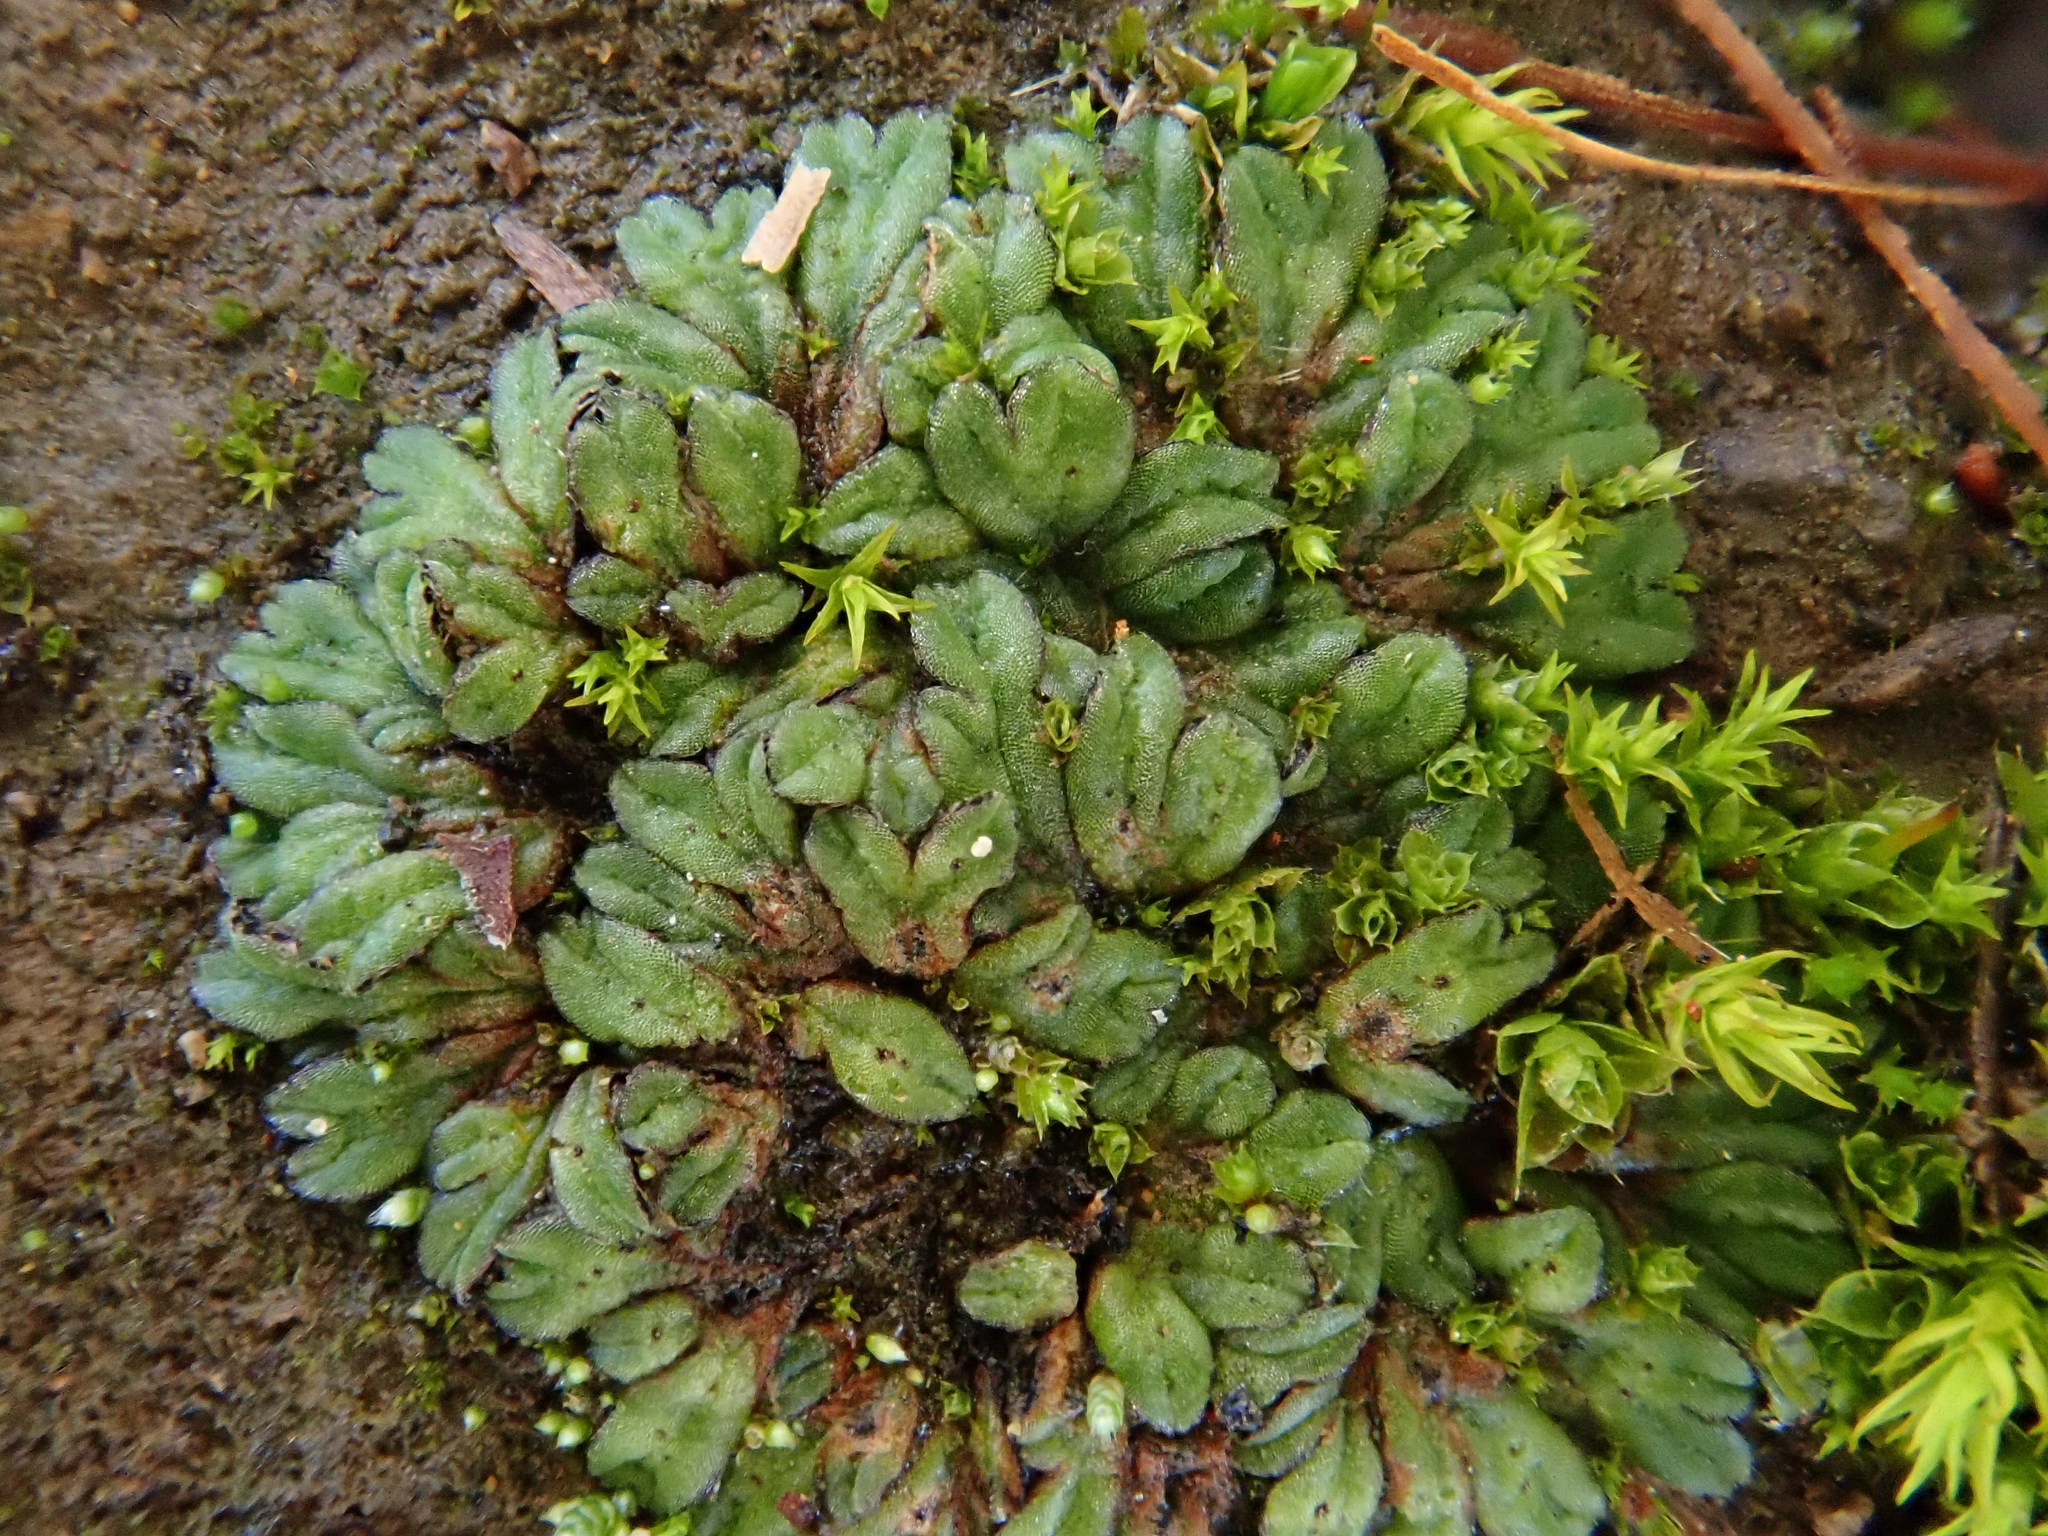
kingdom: Plantae
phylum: Marchantiophyta
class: Marchantiopsida
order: Marchantiales
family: Ricciaceae
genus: Riccia
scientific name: Riccia nigrella
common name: Black crystalwort
